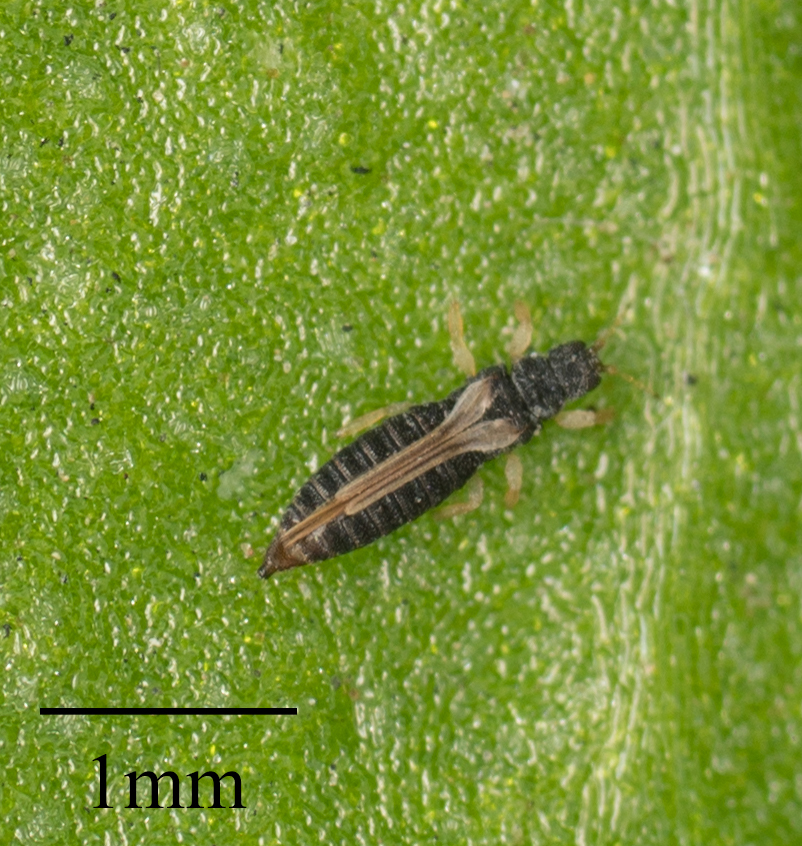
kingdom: Animalia
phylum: Arthropoda
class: Insecta
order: Thysanoptera
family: Thripidae
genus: Heliothrips
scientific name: Heliothrips haemorrhoidalis
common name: Thrips
